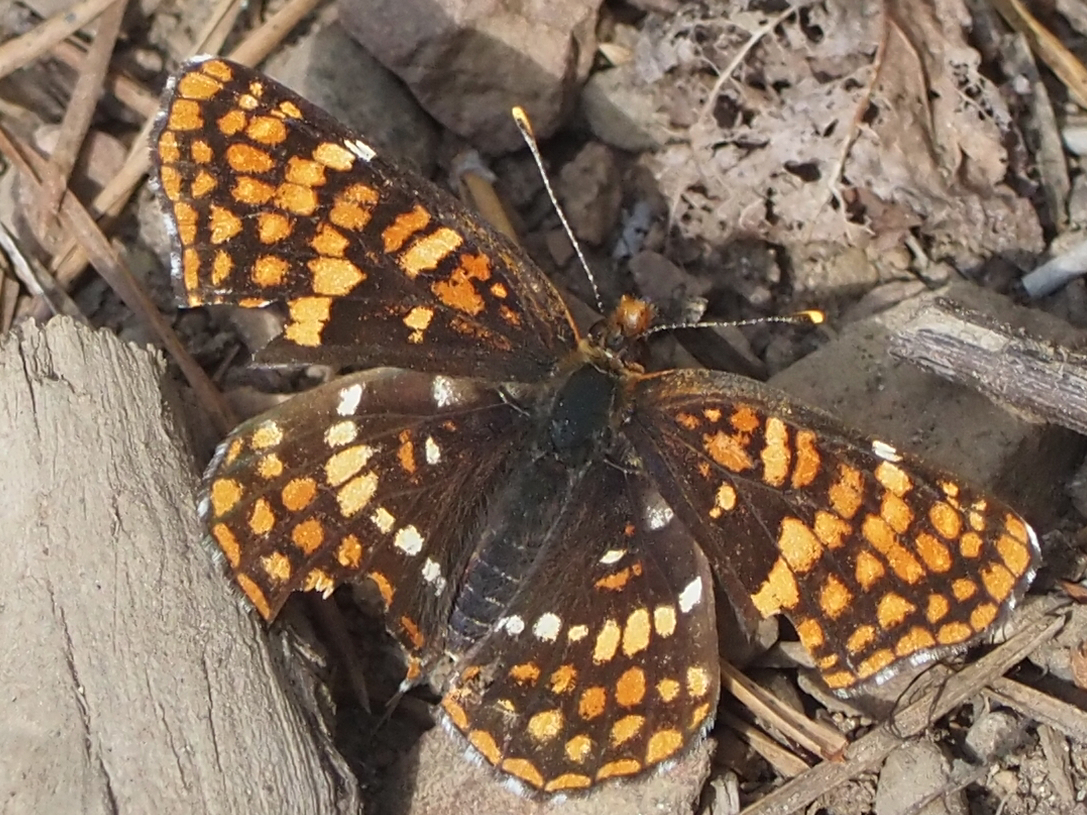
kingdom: Animalia
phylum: Arthropoda
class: Insecta
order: Lepidoptera
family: Nymphalidae
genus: Chlosyne
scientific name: Chlosyne hoffmanni
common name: Hoffmann's checkerspot
